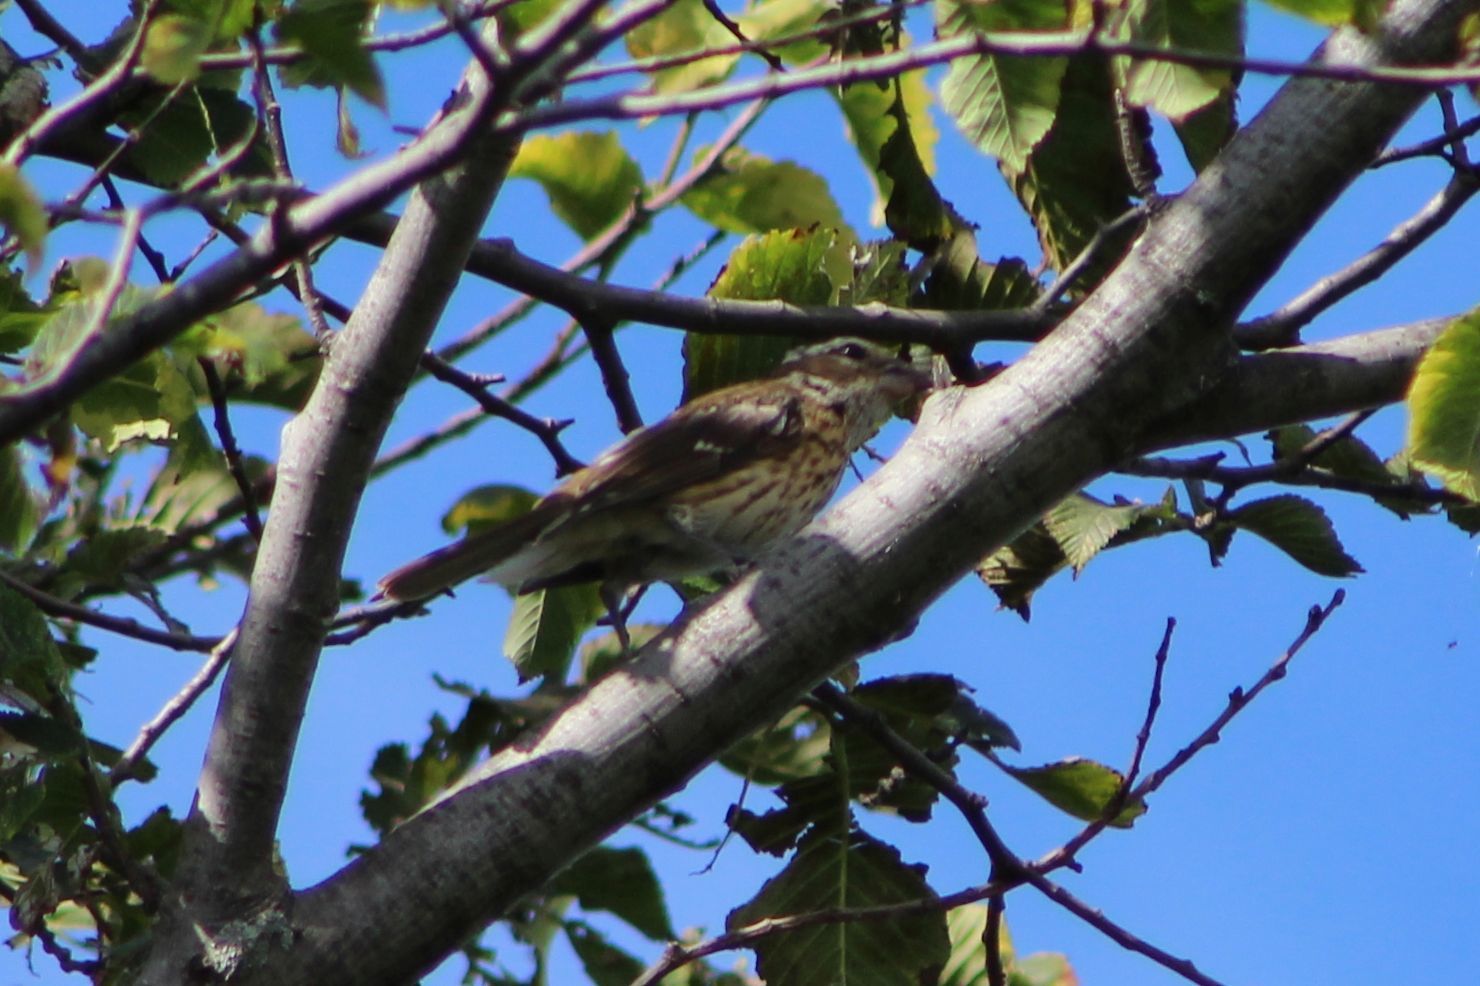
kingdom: Animalia
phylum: Chordata
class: Aves
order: Passeriformes
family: Cardinalidae
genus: Pheucticus
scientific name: Pheucticus ludovicianus
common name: Rose-breasted grosbeak
